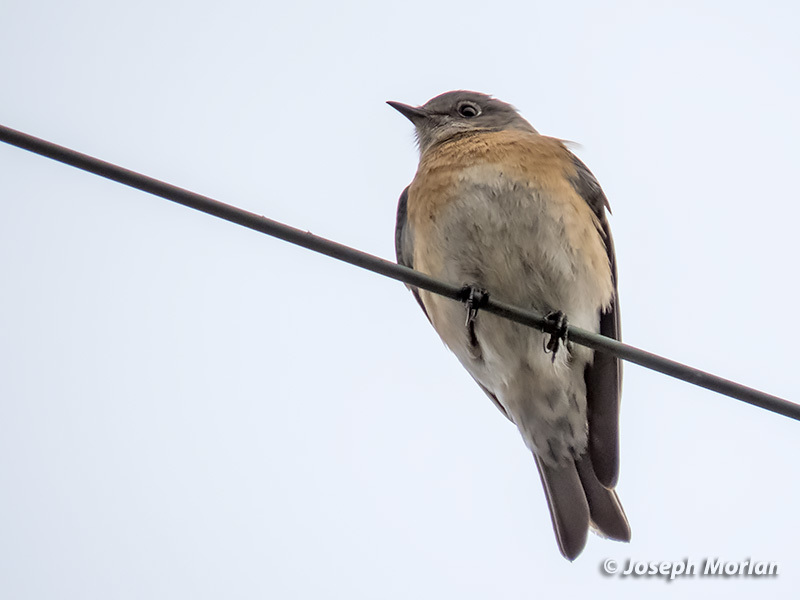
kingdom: Animalia
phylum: Chordata
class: Aves
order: Passeriformes
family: Turdidae
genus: Sialia
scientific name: Sialia mexicana
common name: Western bluebird
